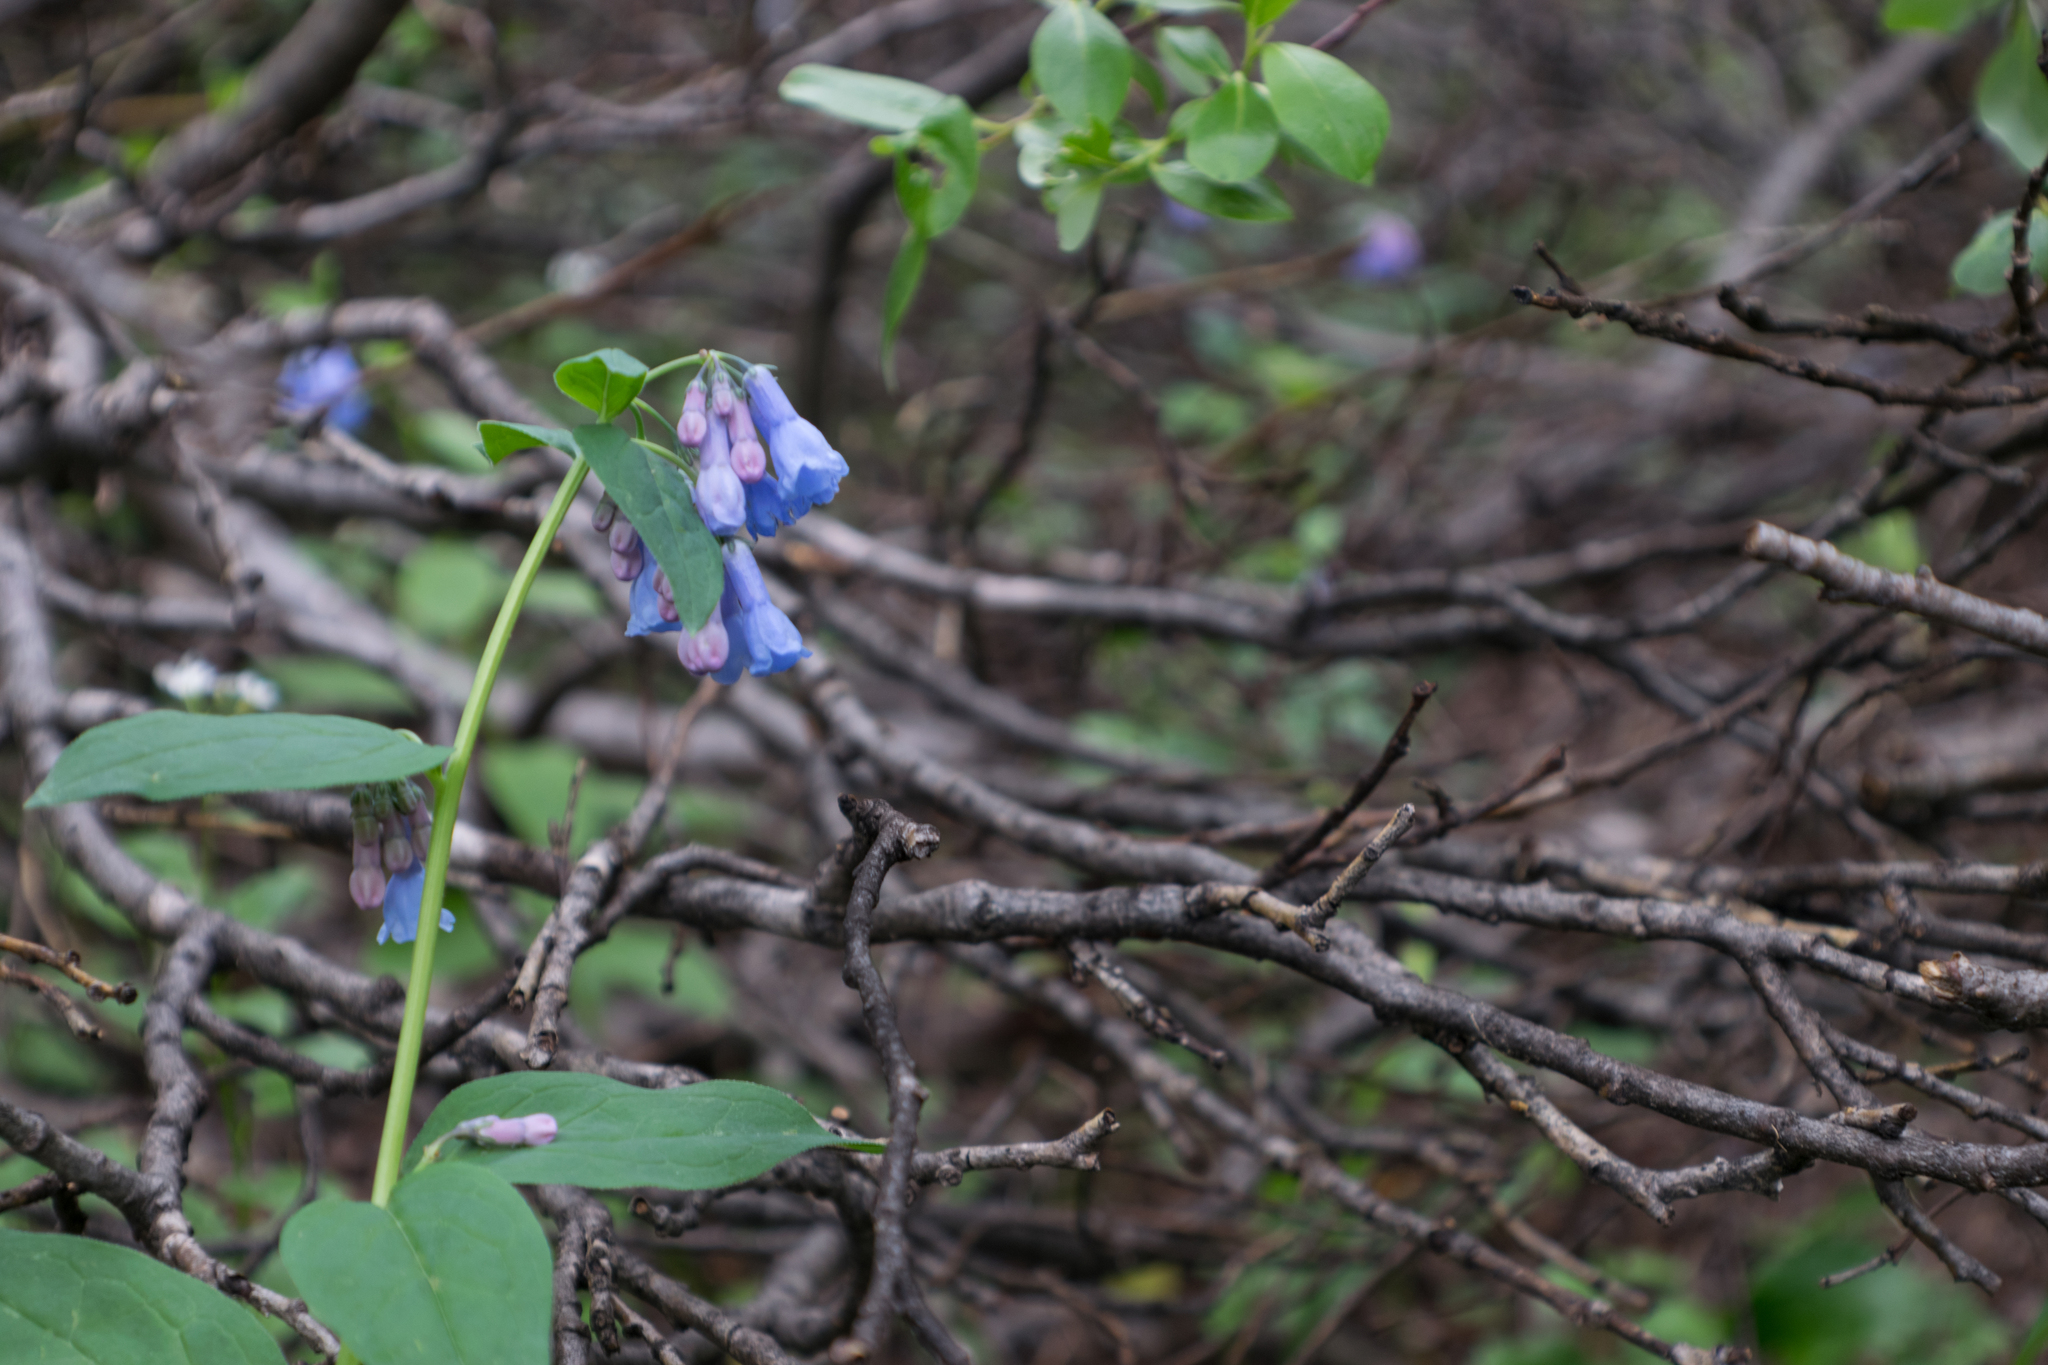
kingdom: Plantae
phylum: Tracheophyta
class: Magnoliopsida
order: Boraginales
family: Boraginaceae
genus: Mertensia
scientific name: Mertensia ciliata
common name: Tall chiming-bells
